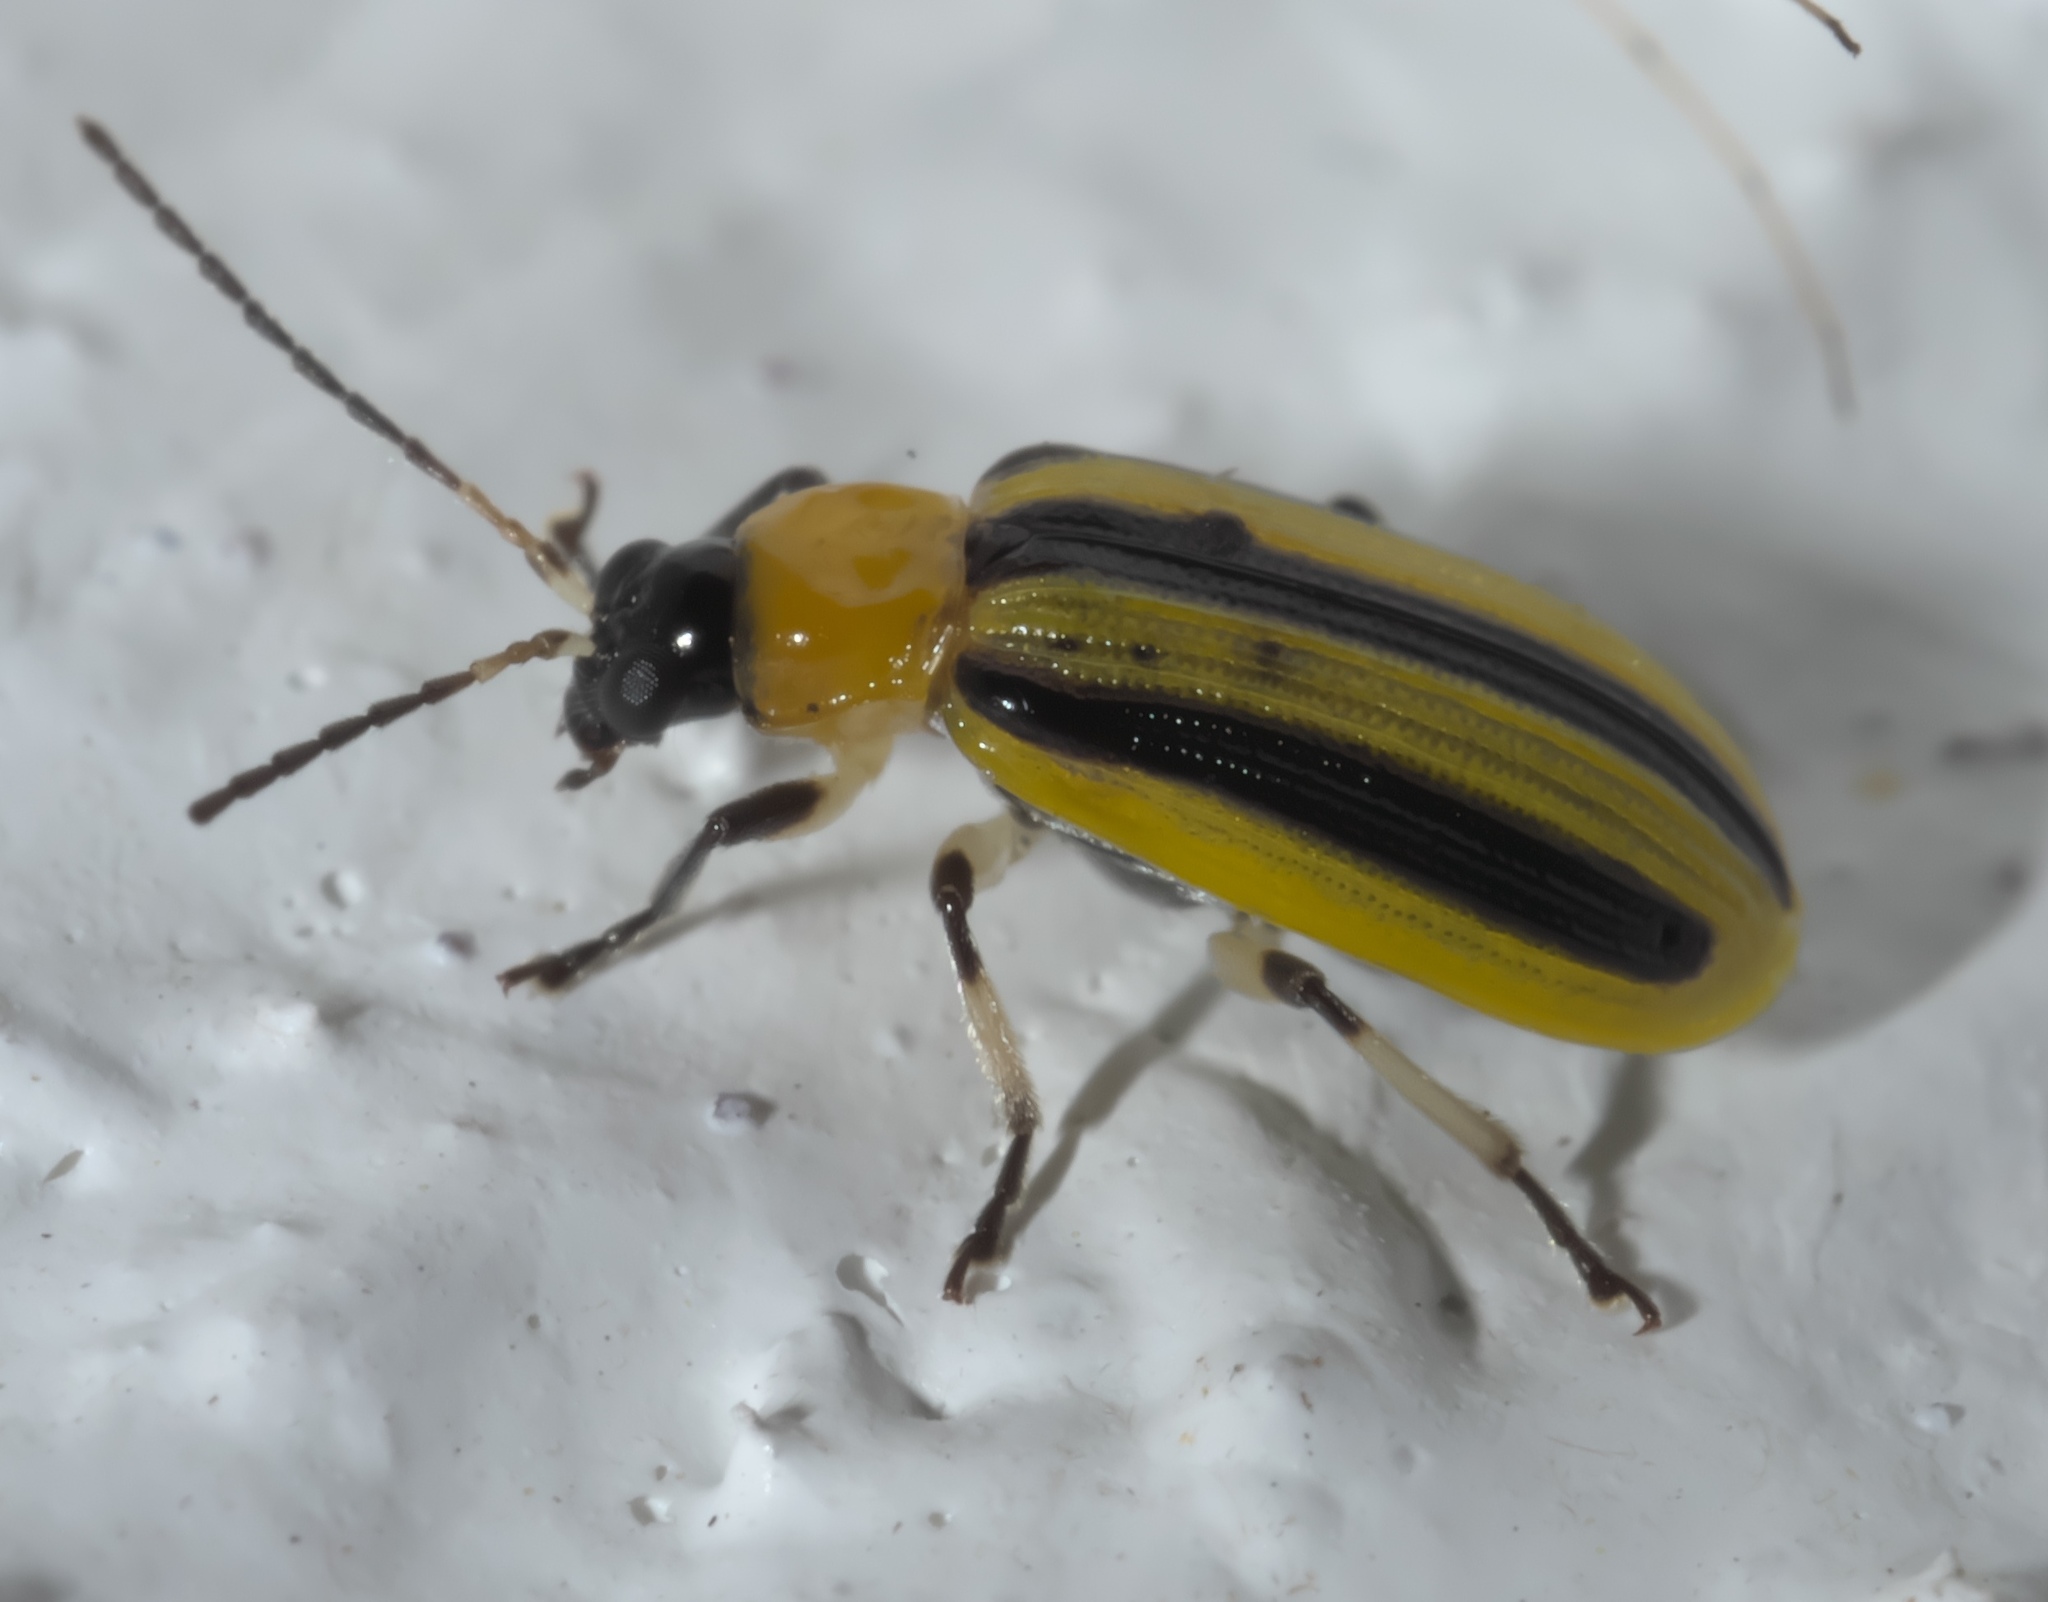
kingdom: Animalia
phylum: Arthropoda
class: Insecta
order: Coleoptera
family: Chrysomelidae
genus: Acalymma
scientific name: Acalymma vittatum
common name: Striped cucumber beetle
